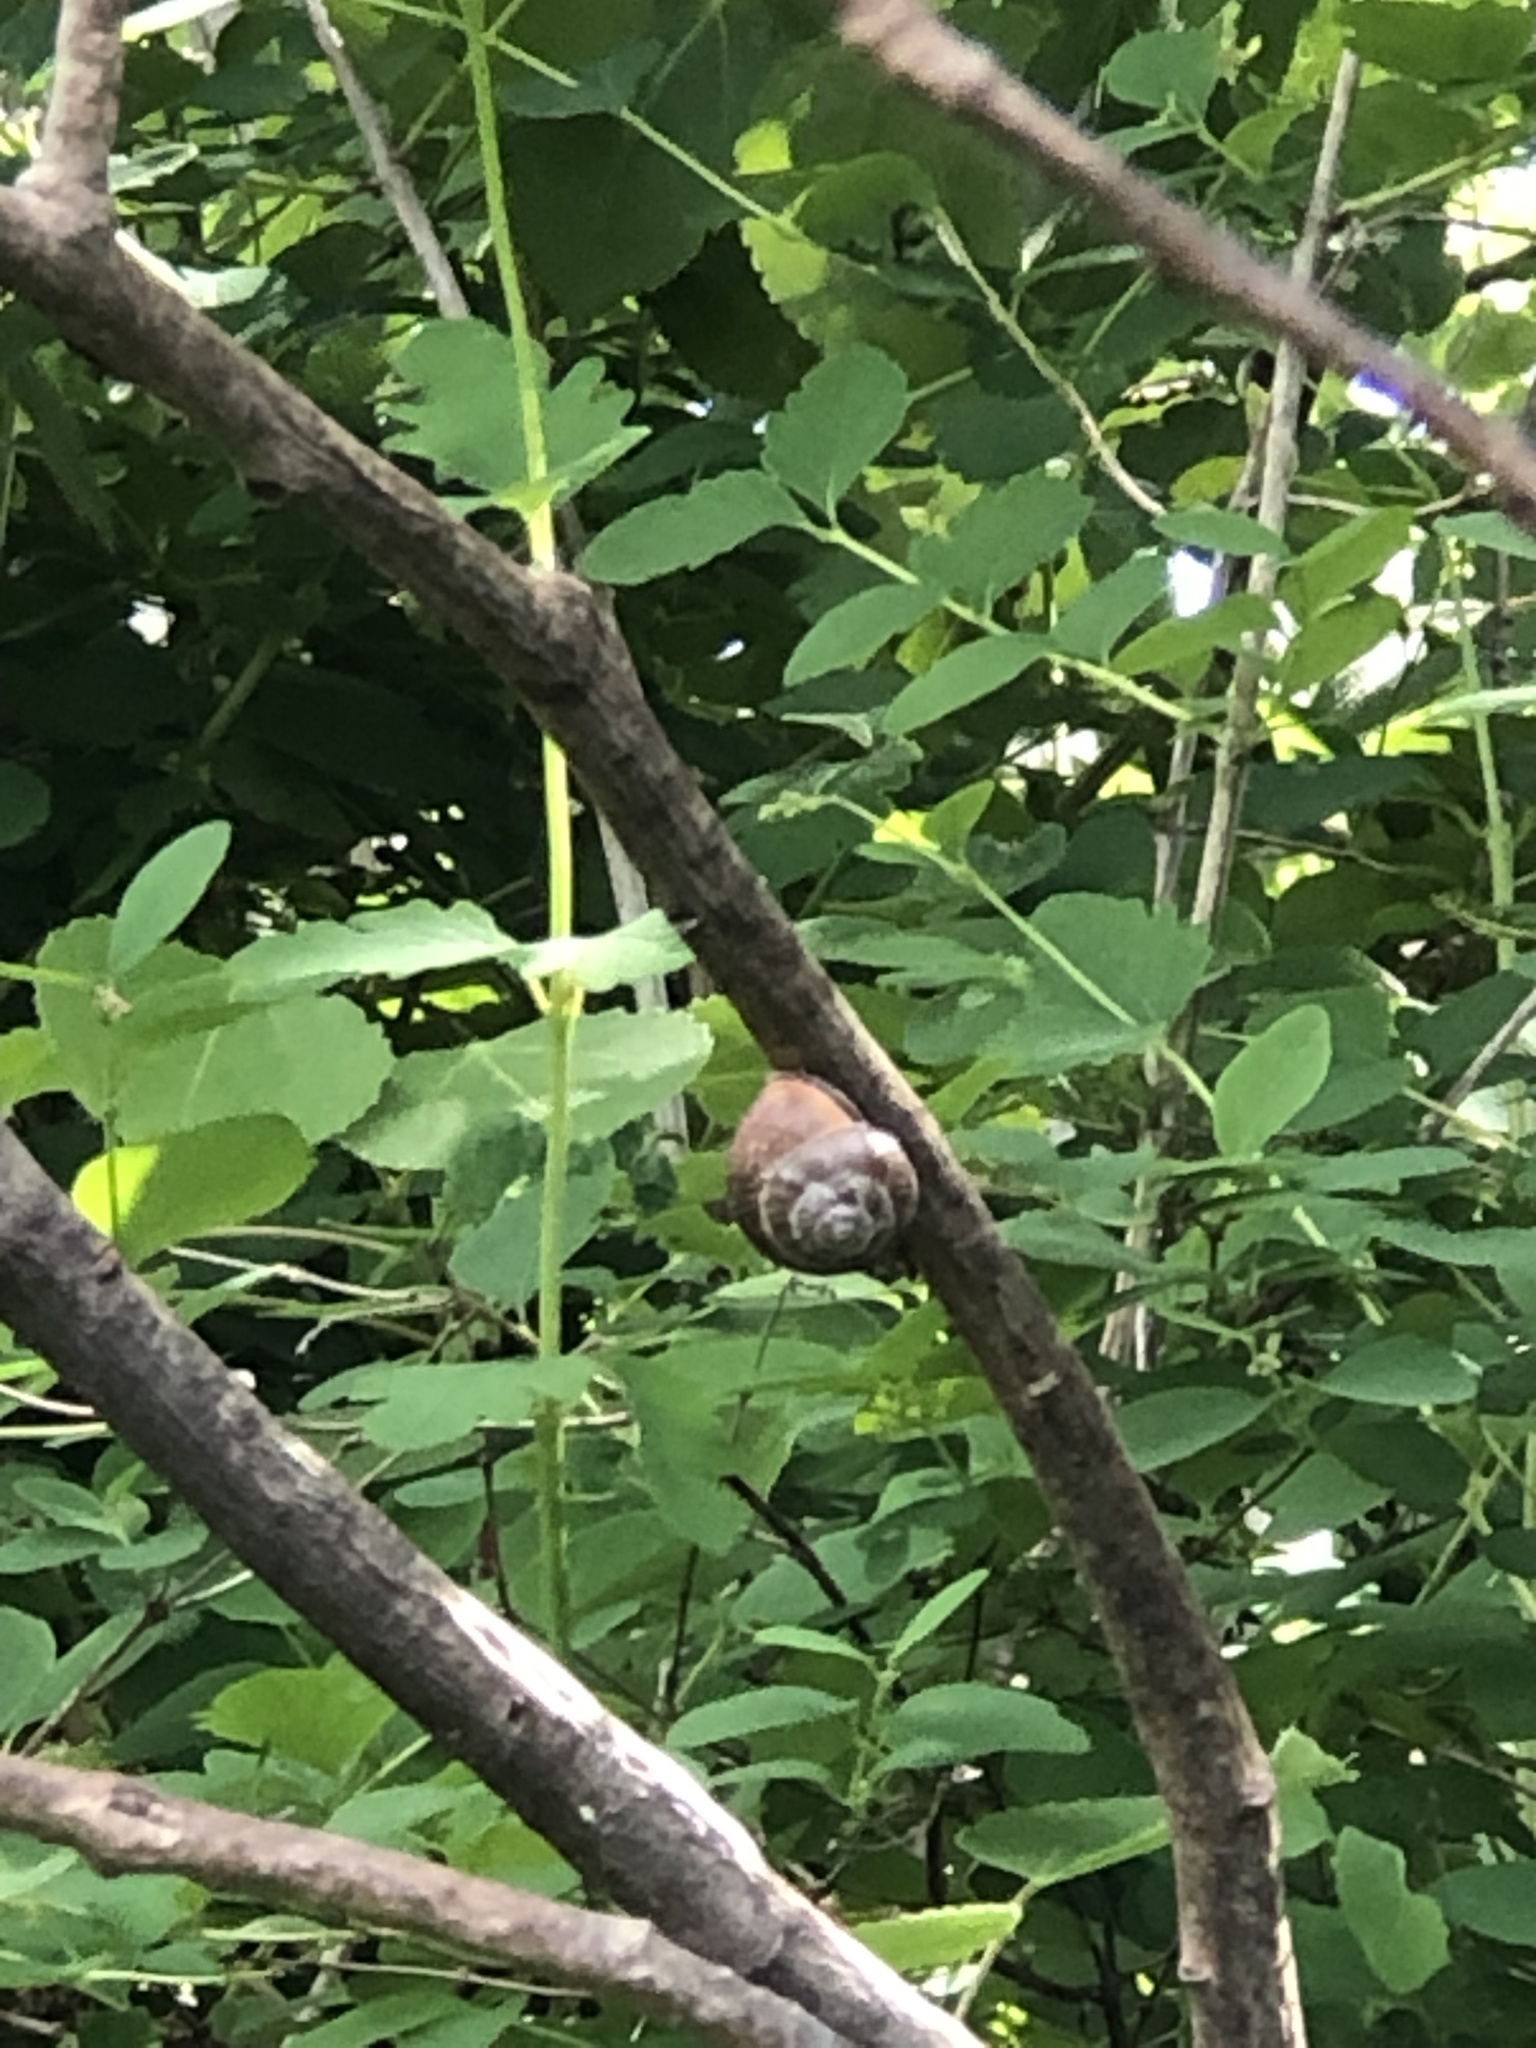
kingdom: Animalia
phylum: Mollusca
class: Gastropoda
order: Stylommatophora
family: Helicidae
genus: Cepaea
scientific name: Cepaea nemoralis
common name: Grovesnail
